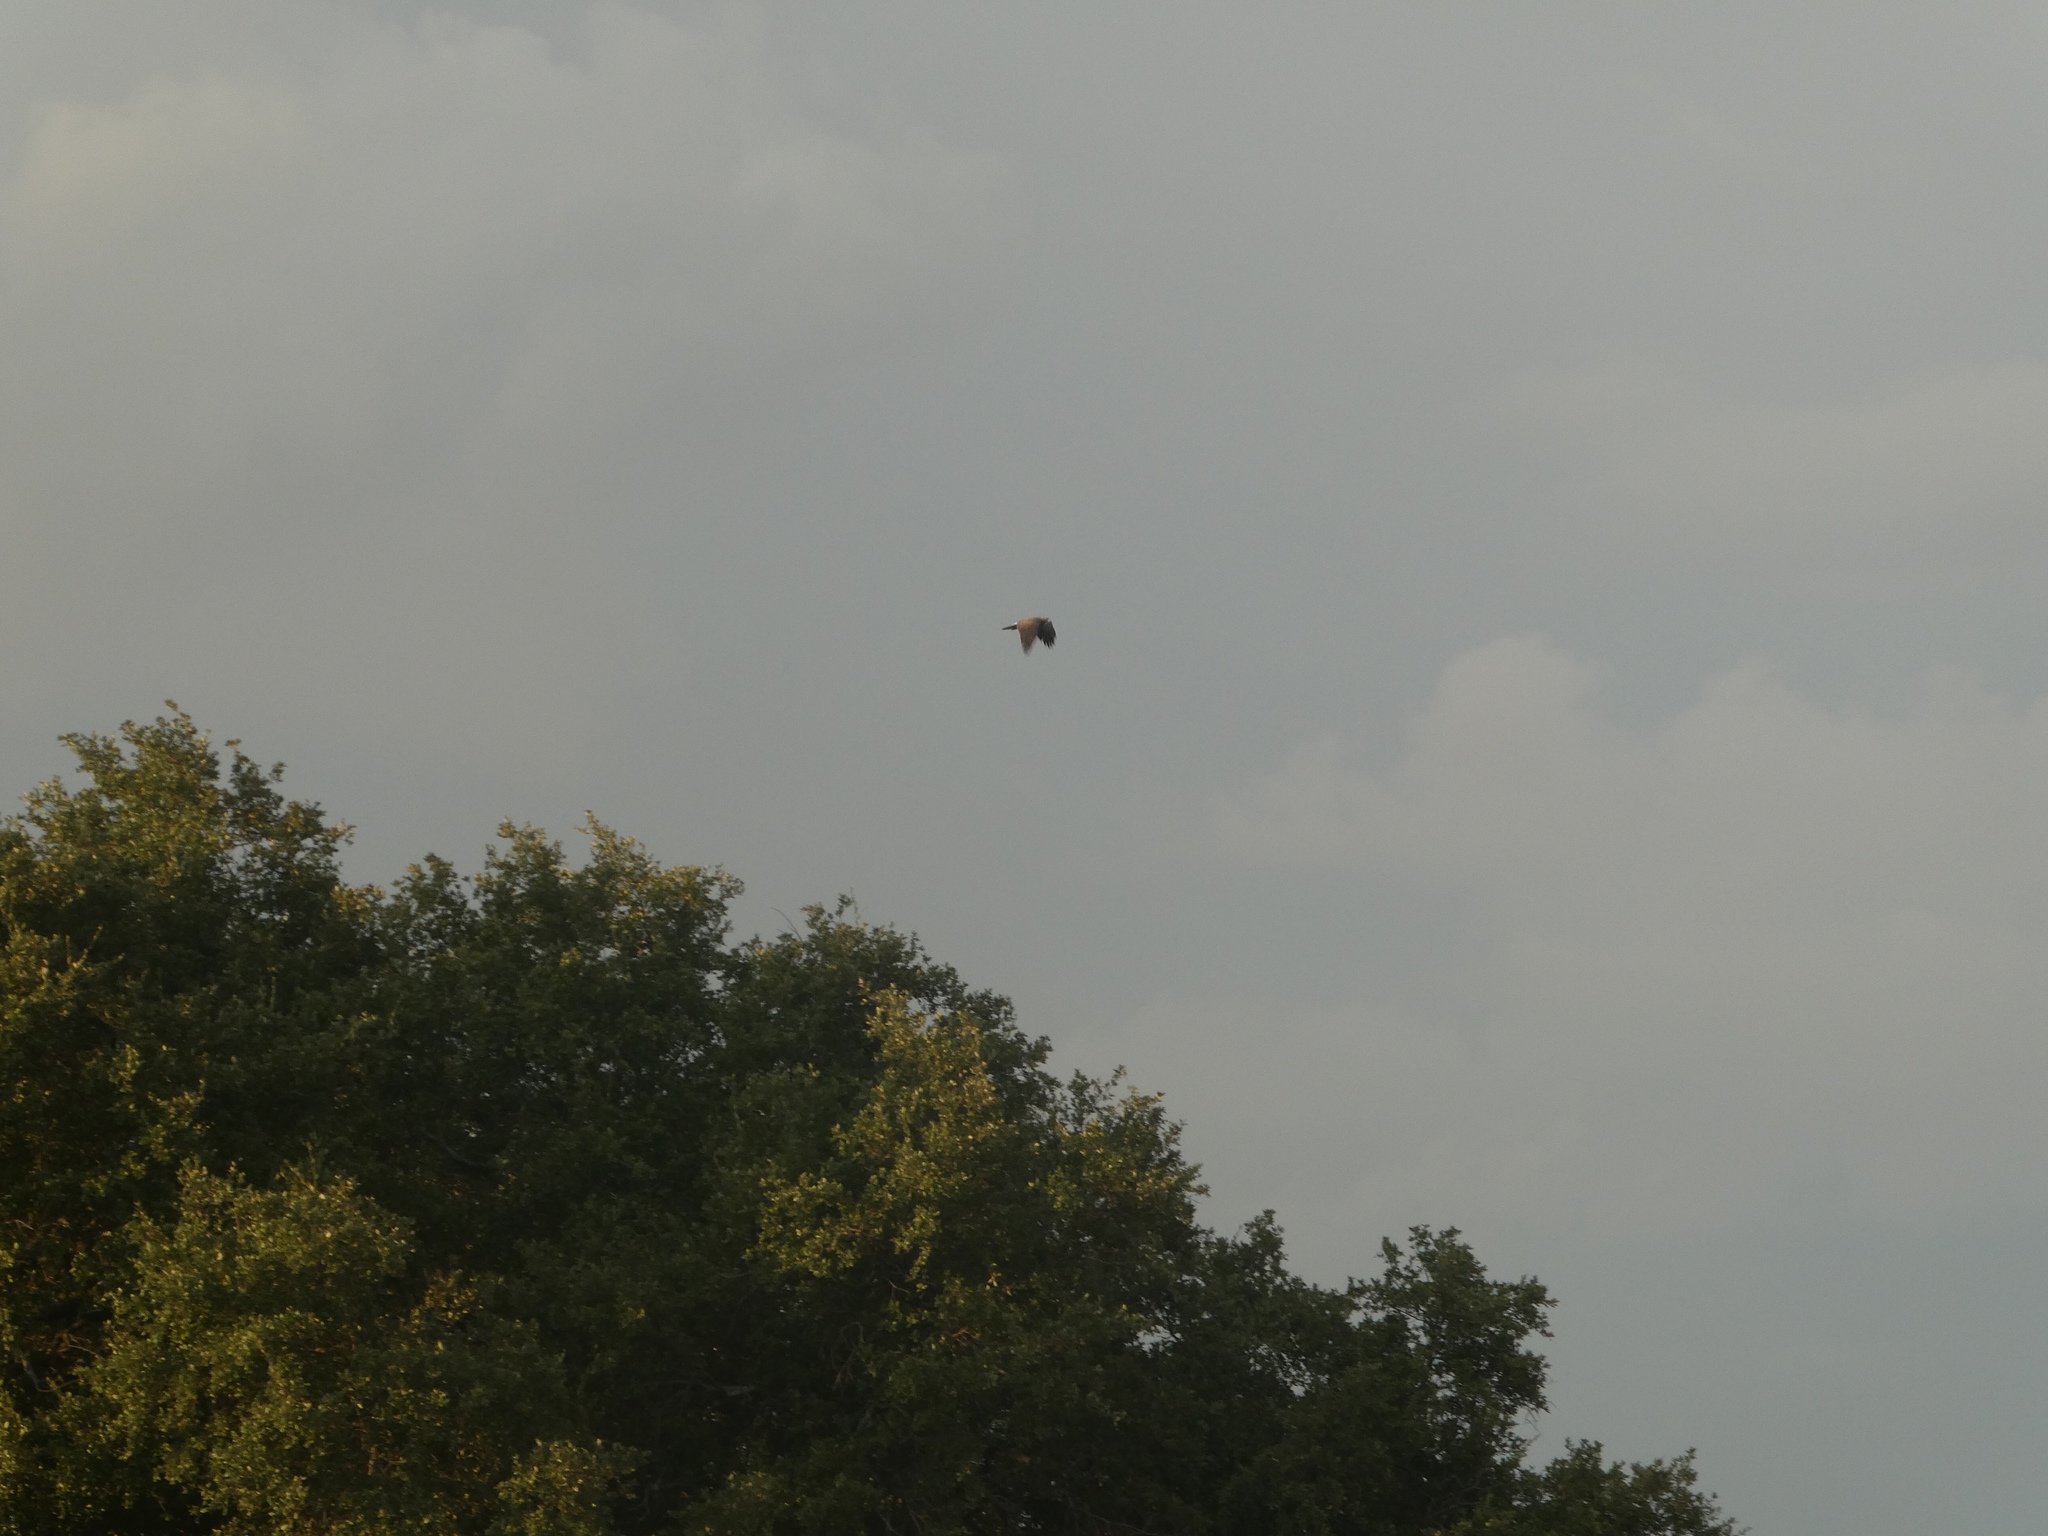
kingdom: Animalia
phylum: Chordata
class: Aves
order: Accipitriformes
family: Accipitridae
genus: Buteo
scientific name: Buteo swainsoni
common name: Swainson's hawk
